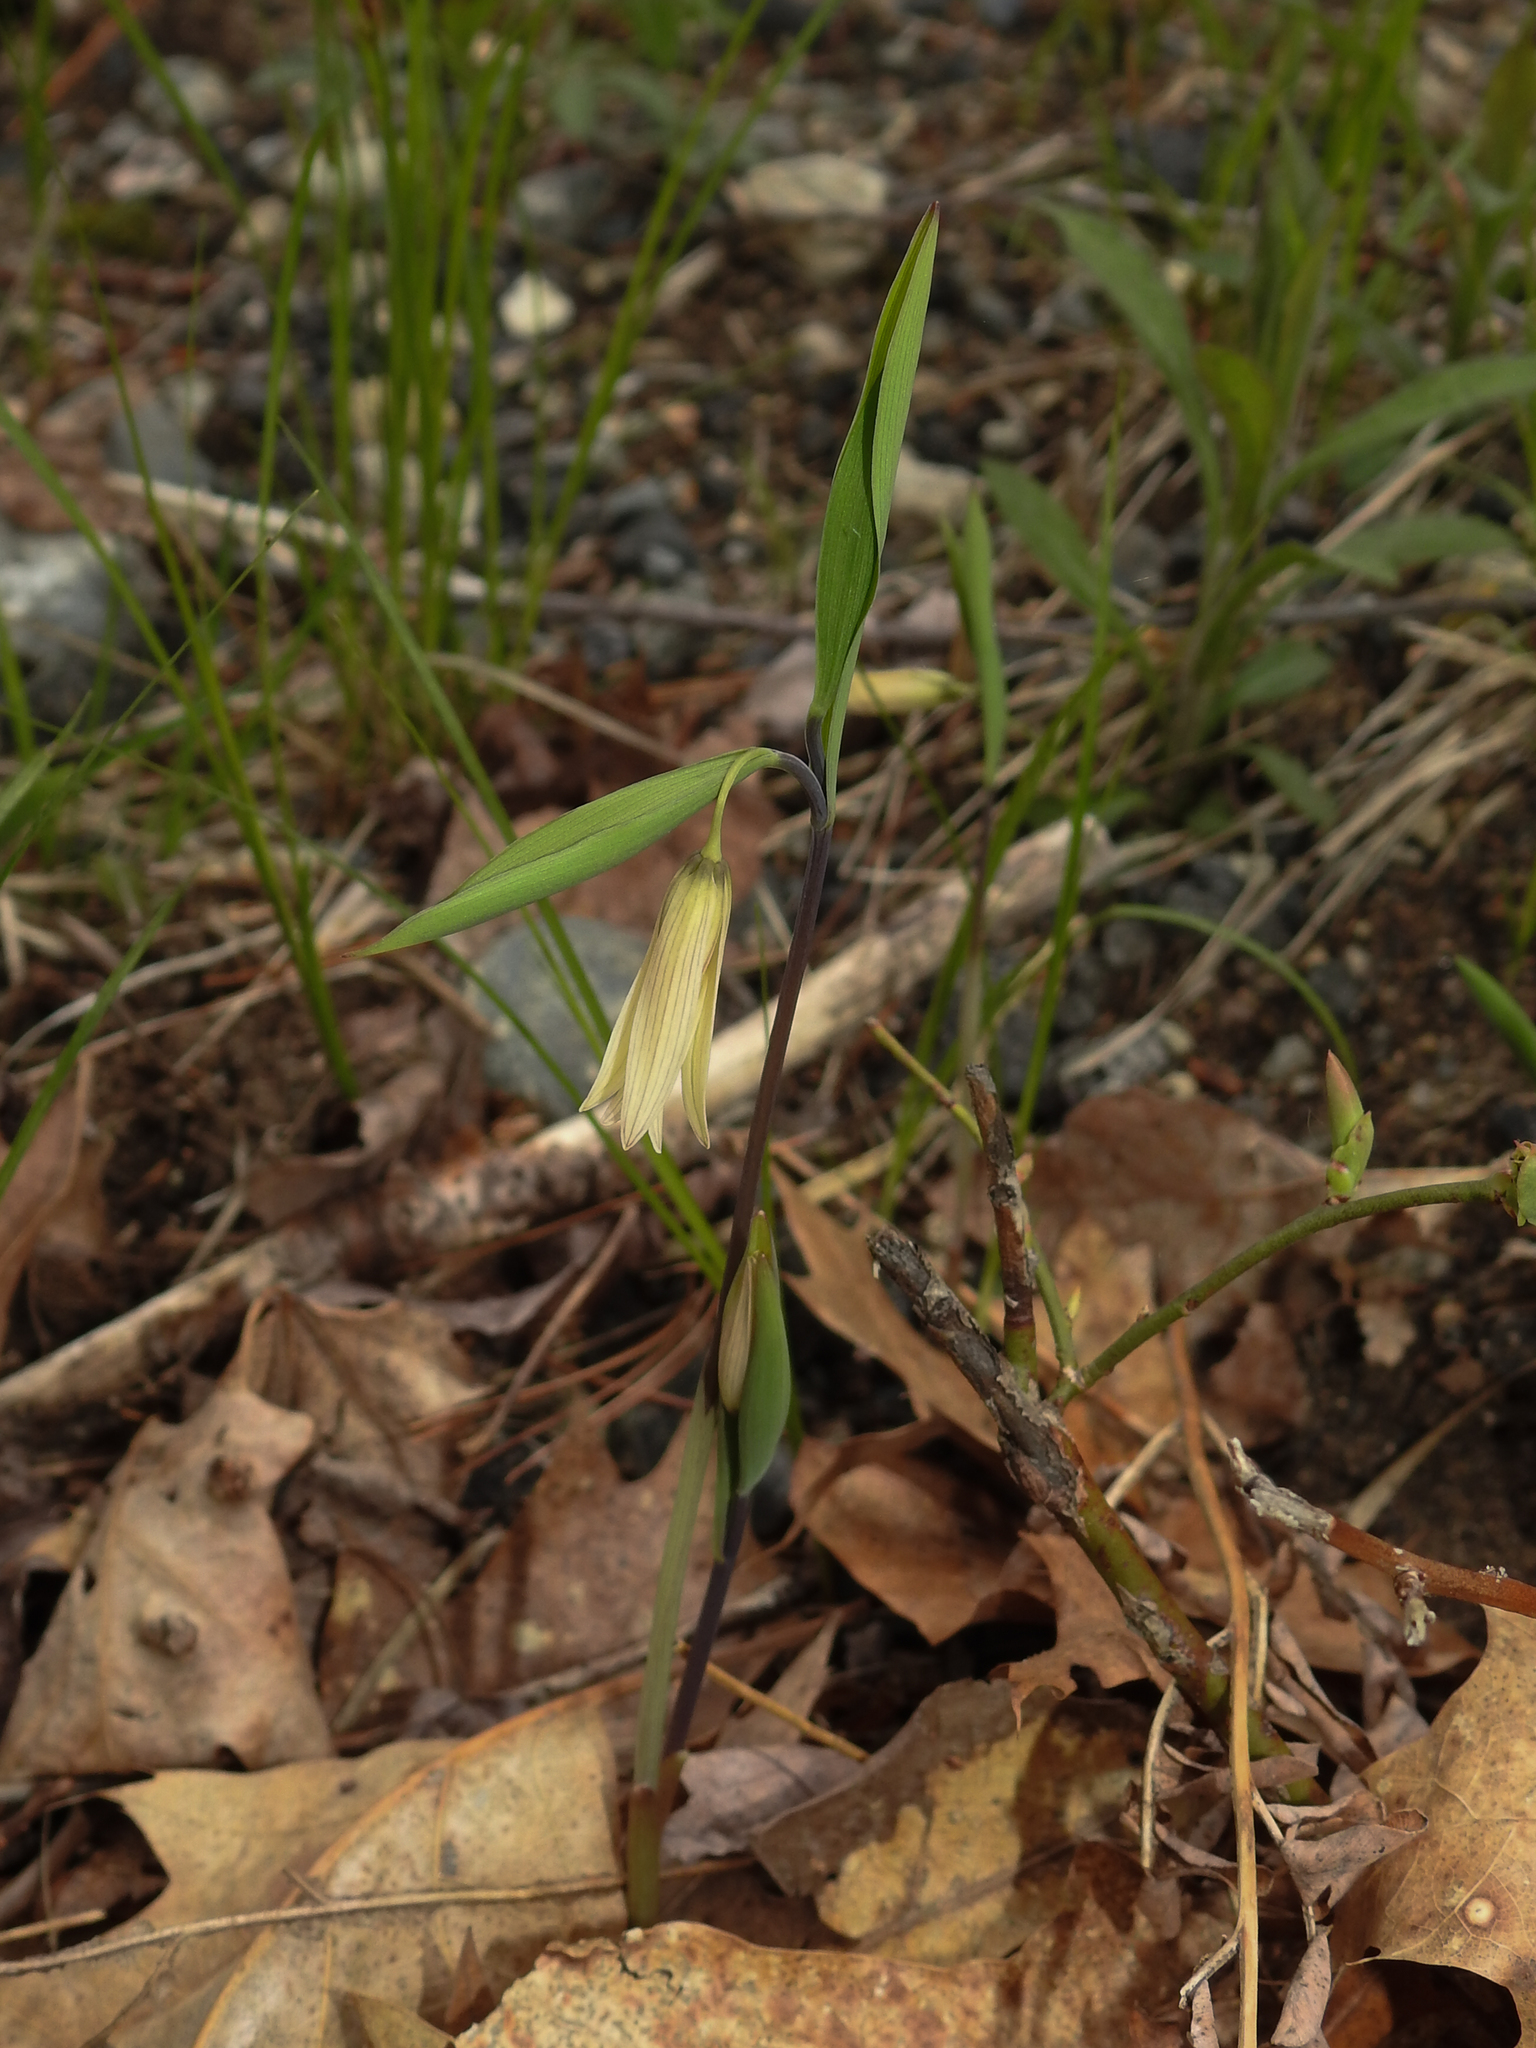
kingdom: Plantae
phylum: Tracheophyta
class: Liliopsida
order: Liliales
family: Colchicaceae
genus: Uvularia
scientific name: Uvularia sessilifolia
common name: Straw-lily
